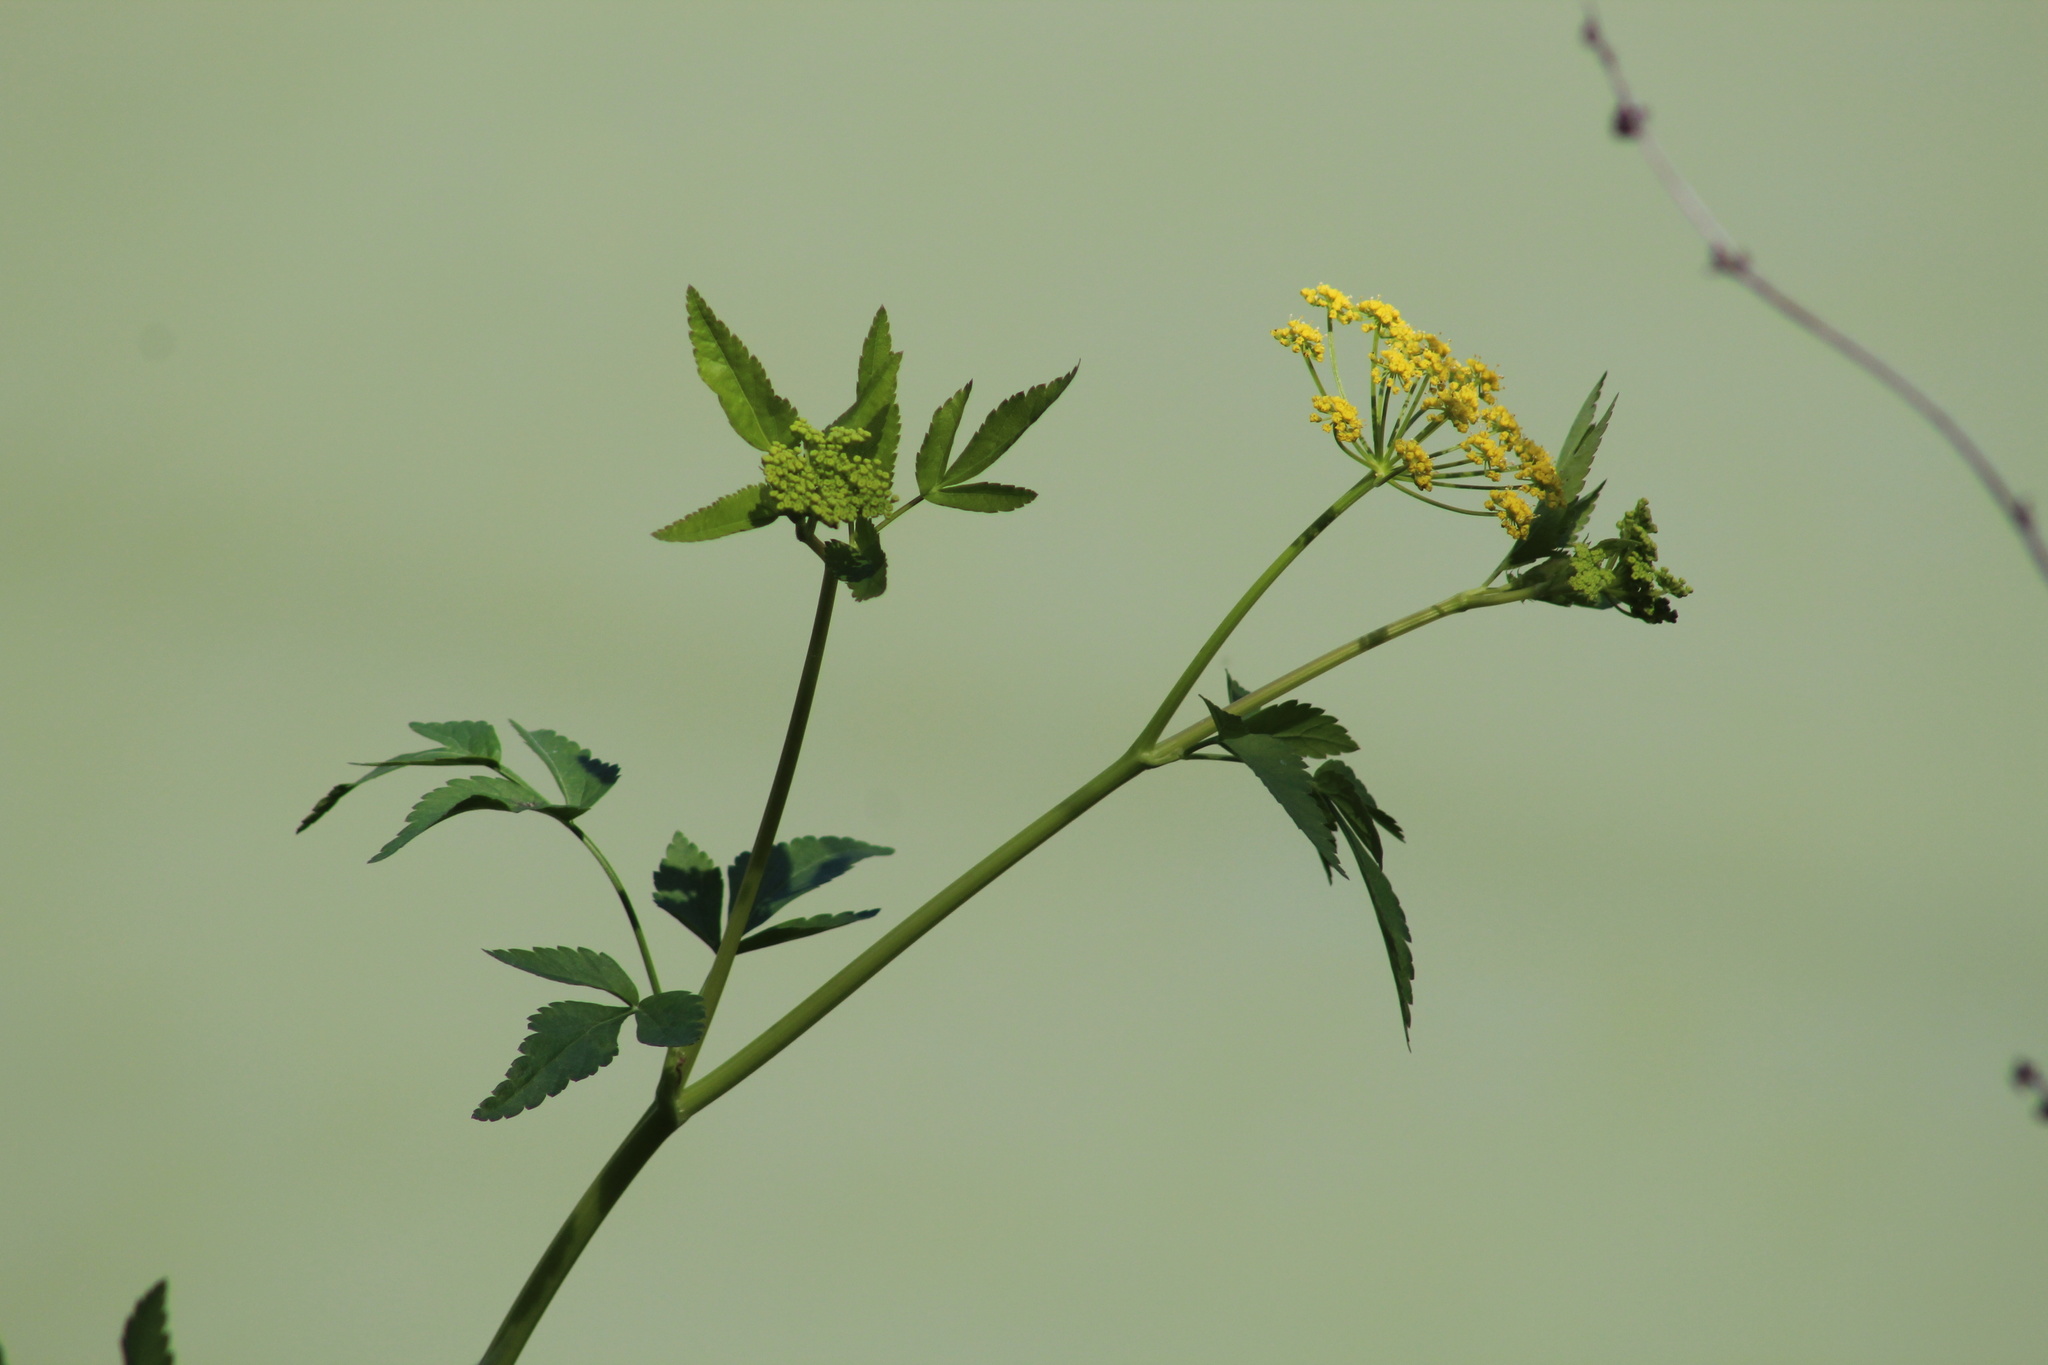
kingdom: Plantae
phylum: Tracheophyta
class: Magnoliopsida
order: Apiales
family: Apiaceae
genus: Zizia
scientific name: Zizia aurea
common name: Golden alexanders
